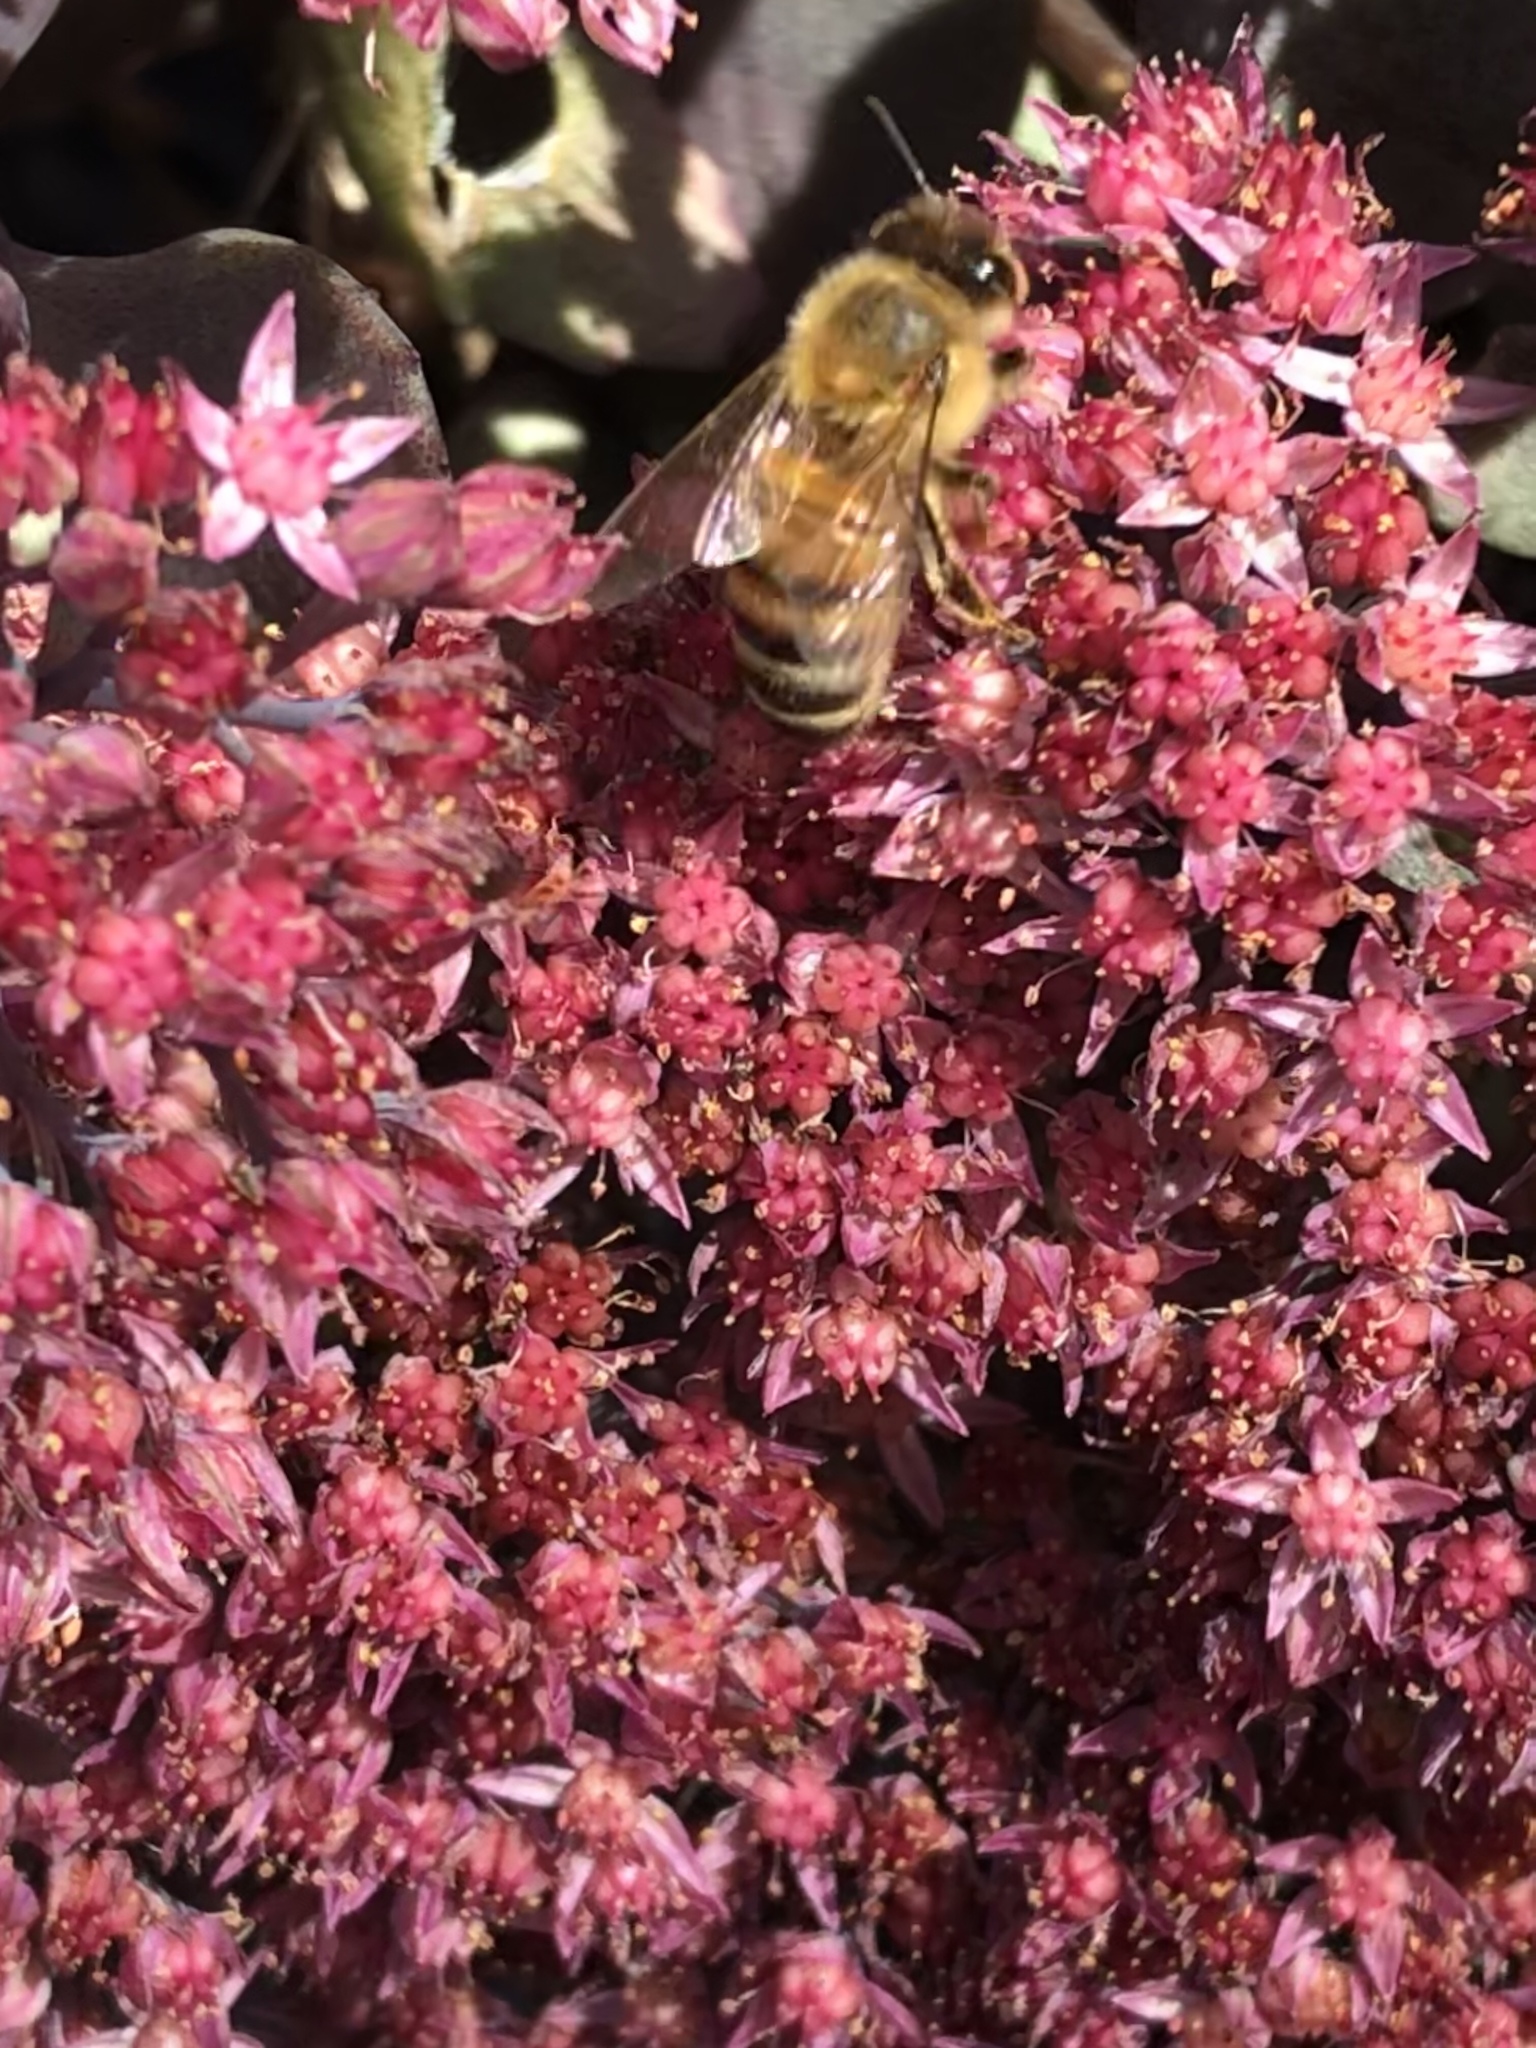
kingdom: Animalia
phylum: Arthropoda
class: Insecta
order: Hymenoptera
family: Apidae
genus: Apis
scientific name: Apis mellifera
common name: Honey bee
